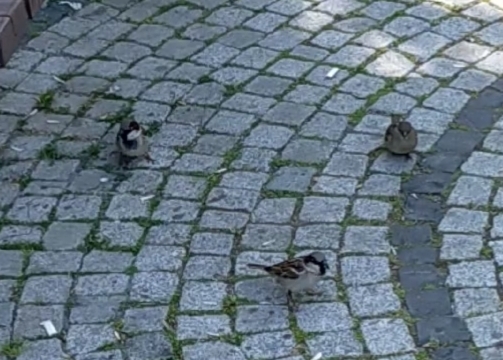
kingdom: Animalia
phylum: Chordata
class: Aves
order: Passeriformes
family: Passeridae
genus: Passer
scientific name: Passer domesticus
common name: House sparrow
